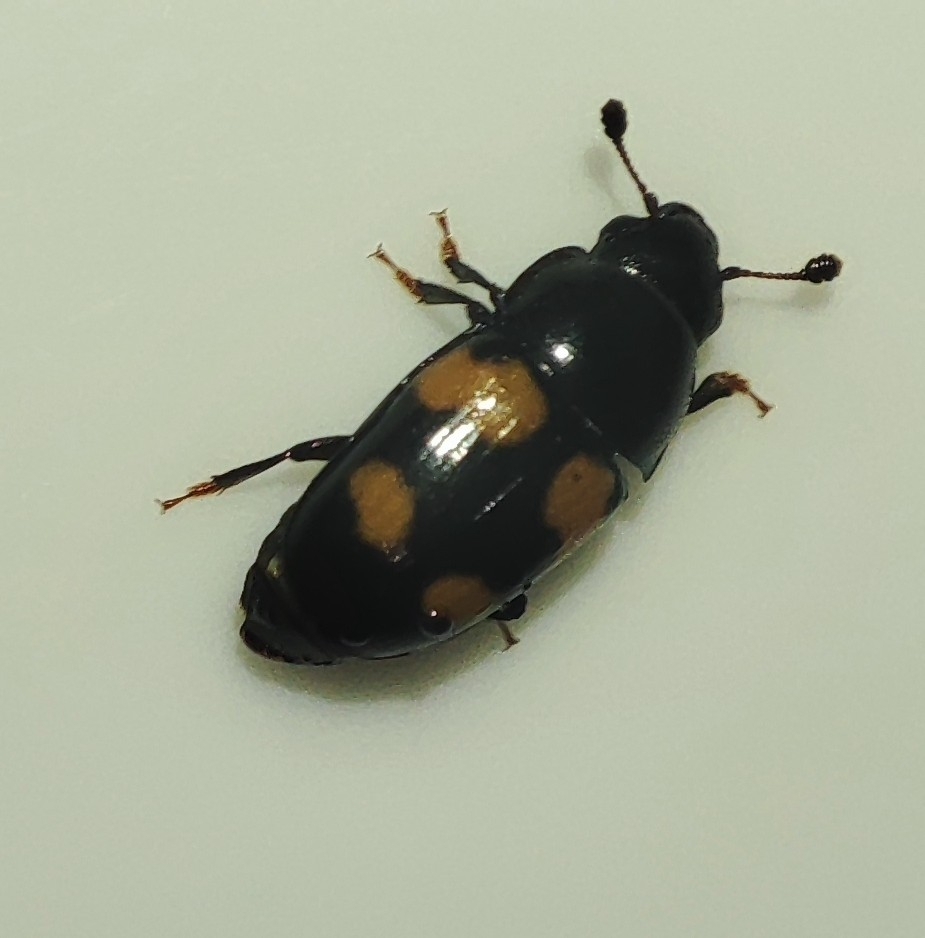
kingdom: Animalia
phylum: Arthropoda
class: Insecta
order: Coleoptera
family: Nitidulidae
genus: Glischrochilus
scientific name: Glischrochilus grandis
